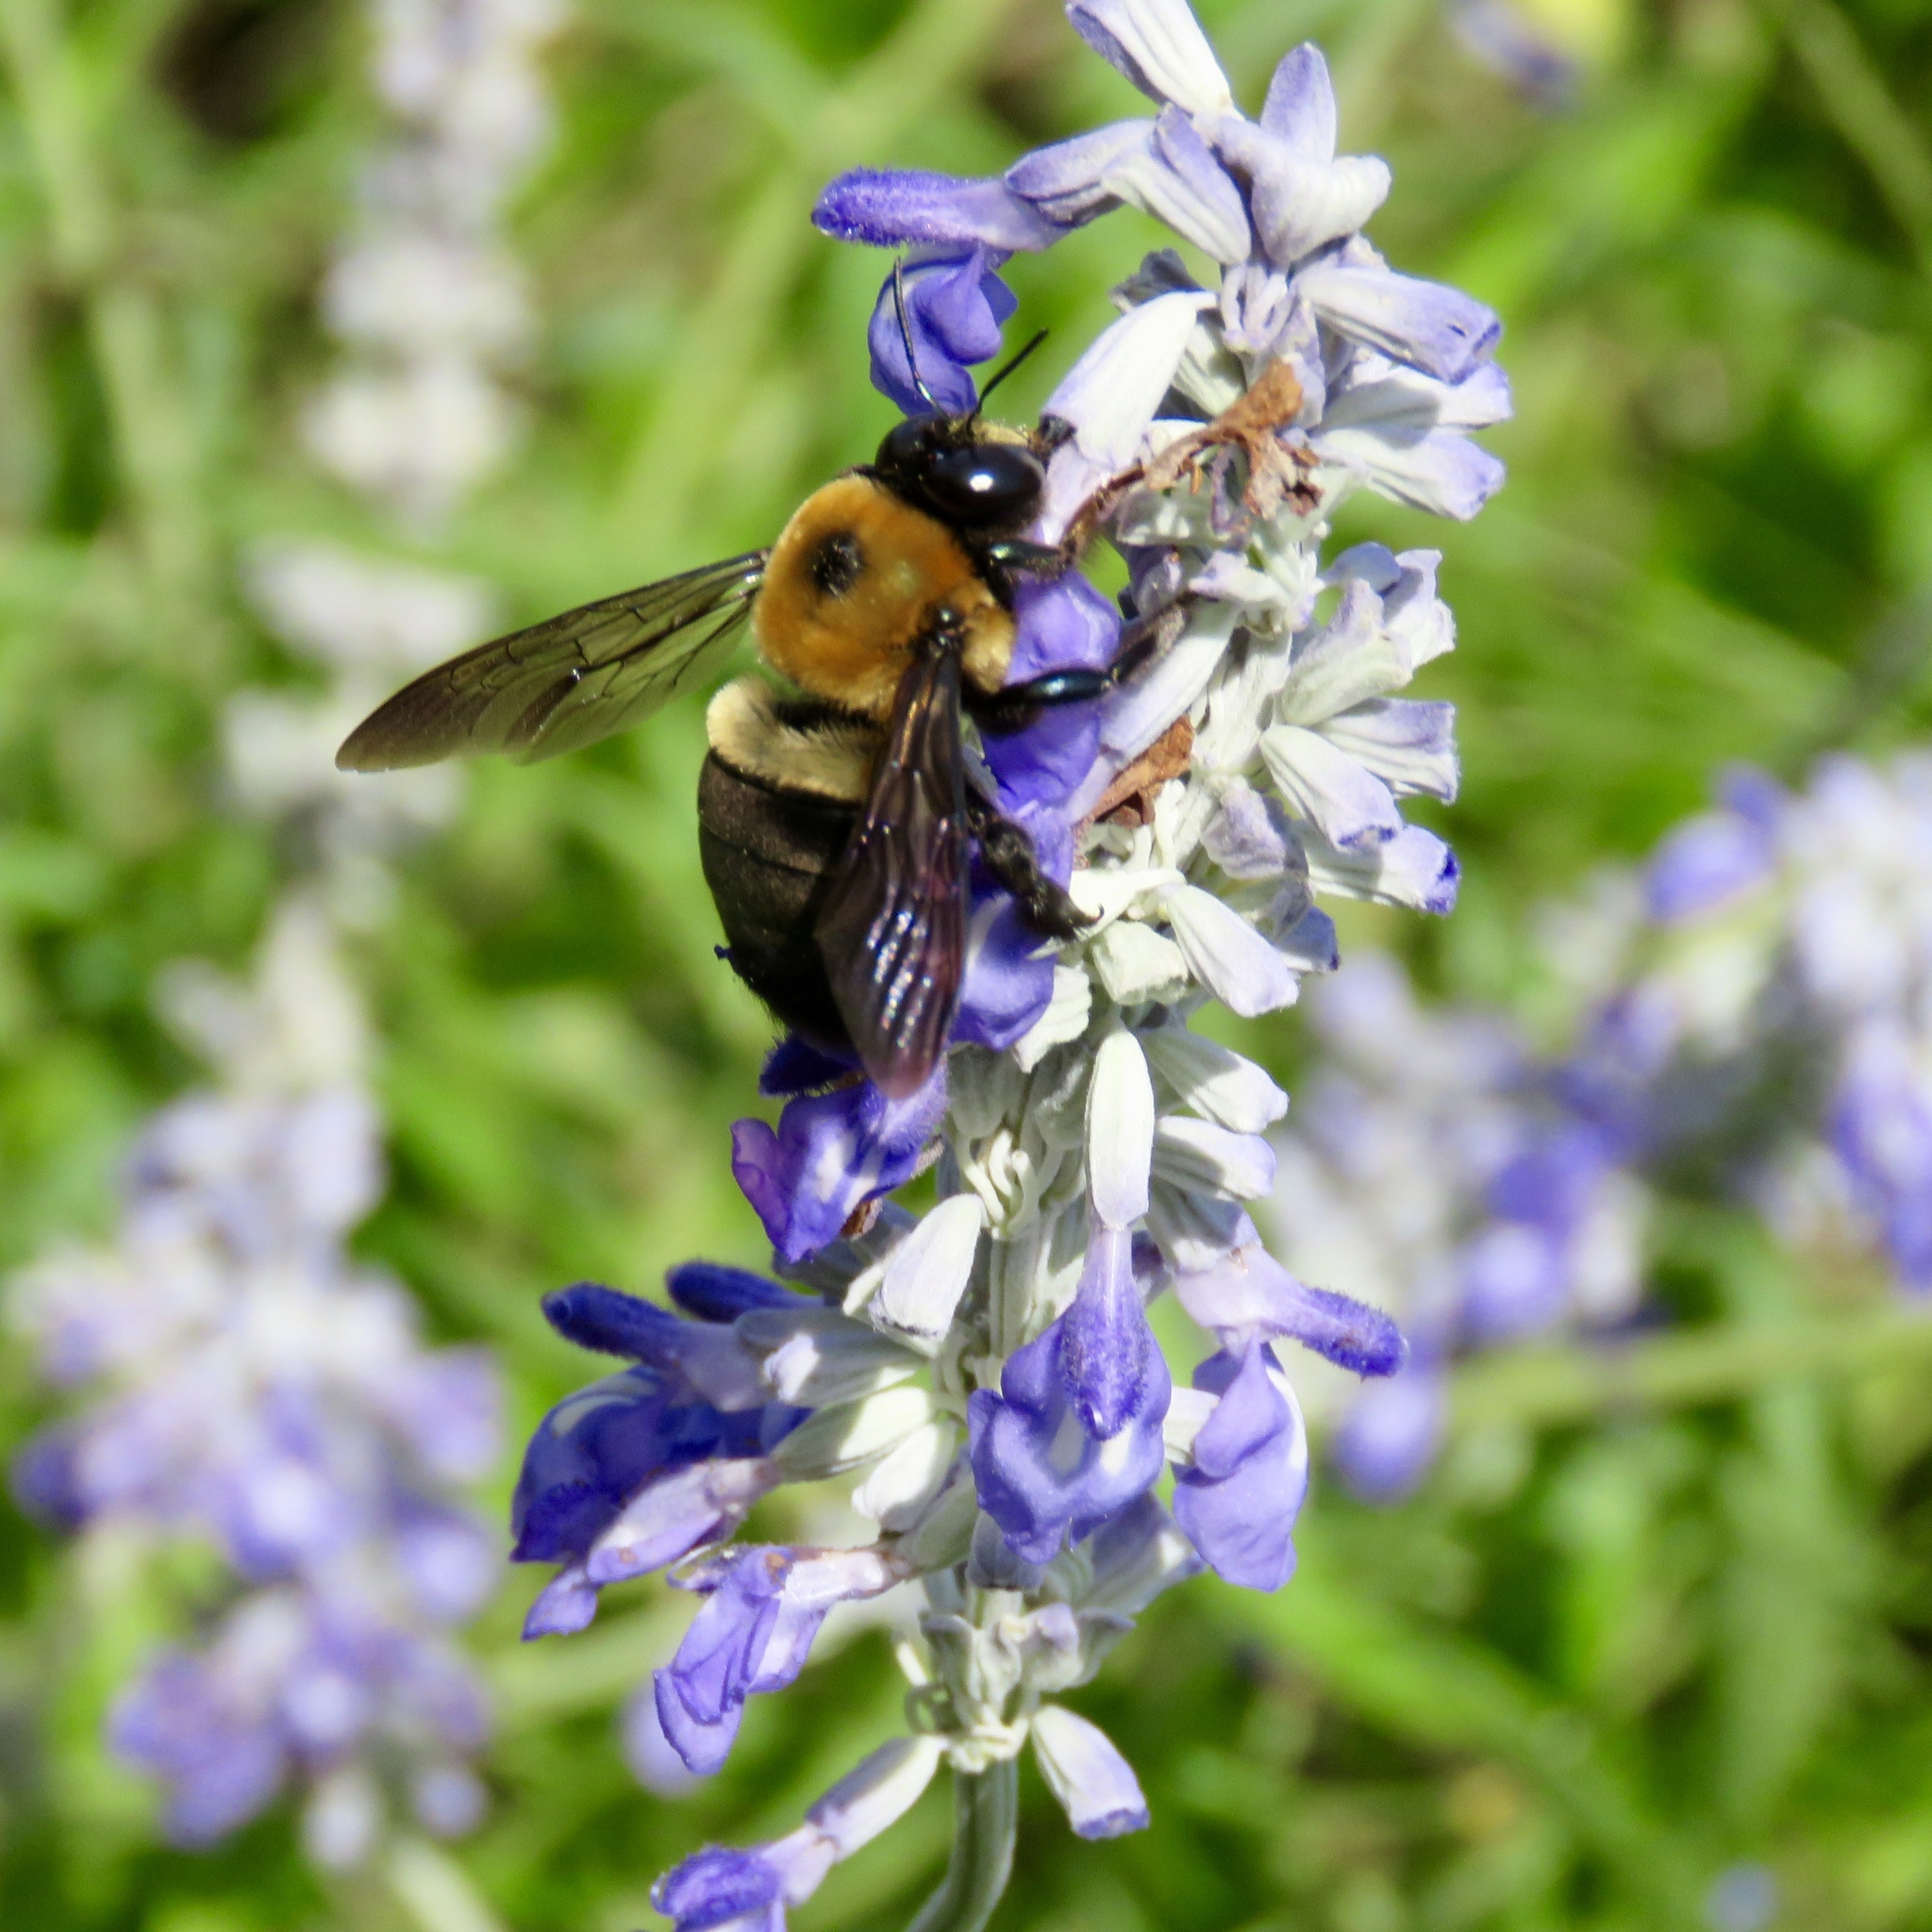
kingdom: Animalia
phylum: Arthropoda
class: Insecta
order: Hymenoptera
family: Apidae
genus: Xylocopa
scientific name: Xylocopa virginica
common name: Carpenter bee
